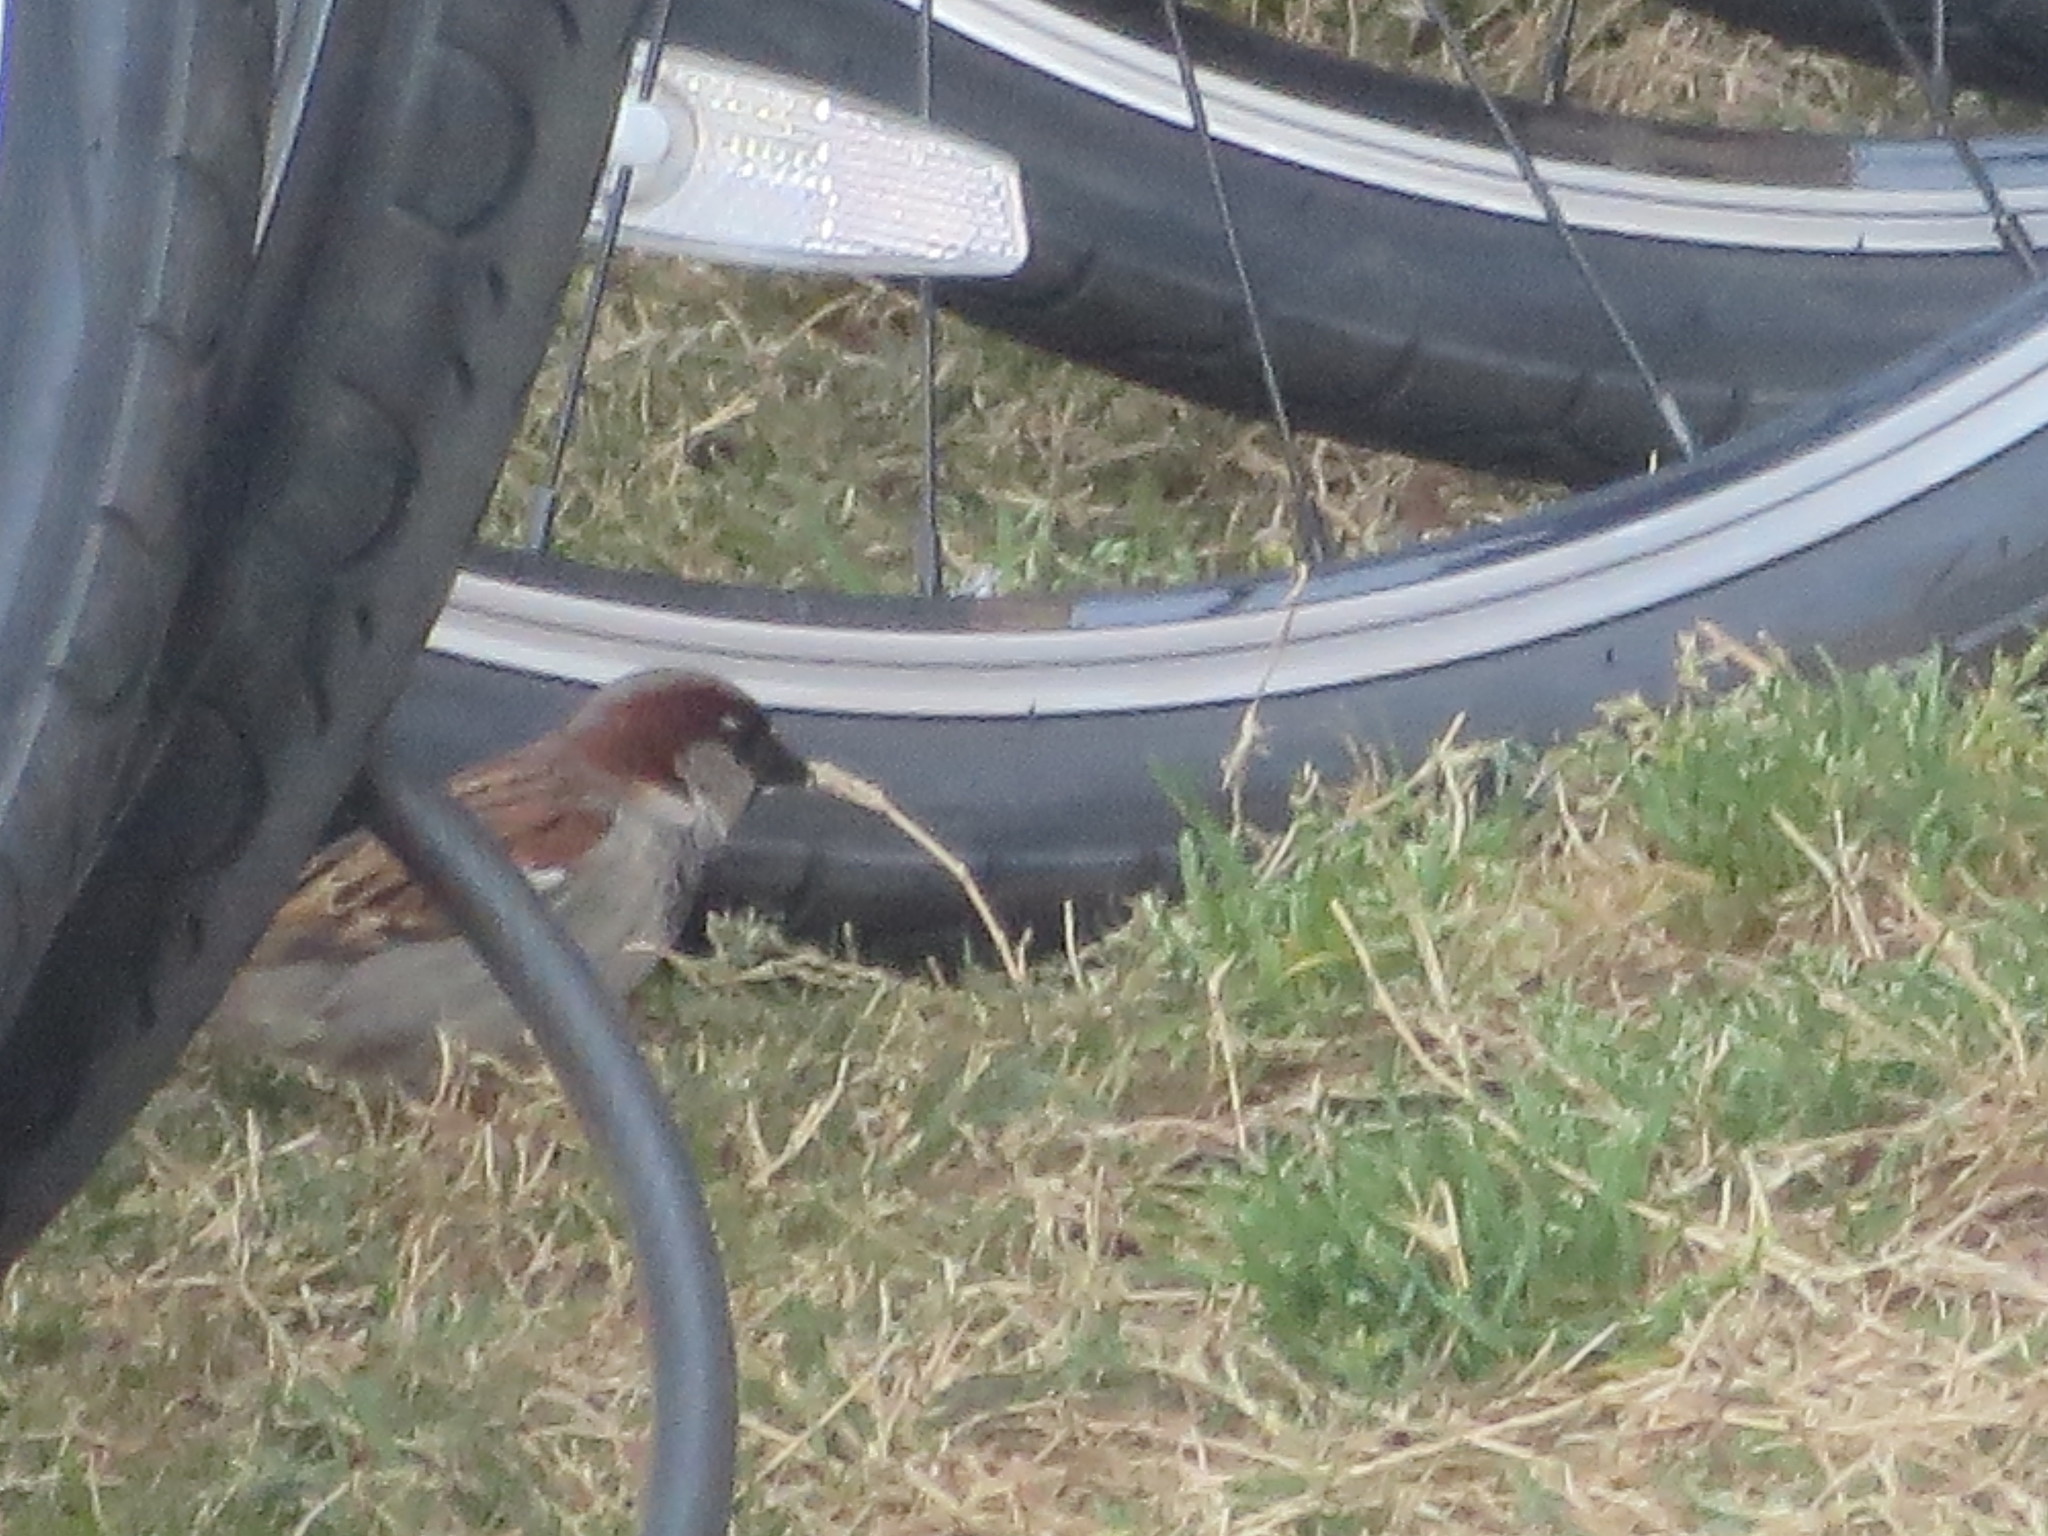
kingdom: Animalia
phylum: Chordata
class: Aves
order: Passeriformes
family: Passeridae
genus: Passer
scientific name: Passer domesticus
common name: House sparrow
